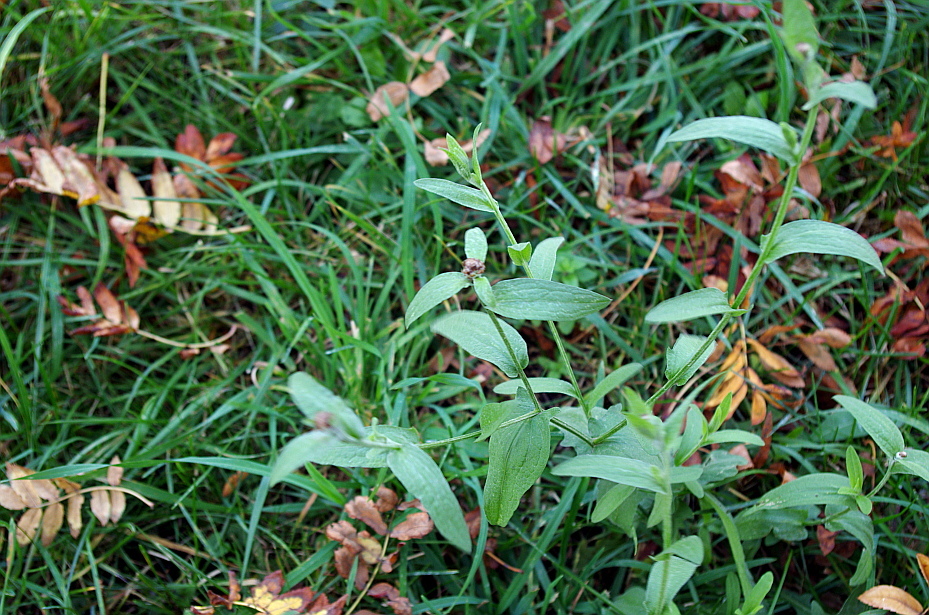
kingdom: Plantae
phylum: Tracheophyta
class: Magnoliopsida
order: Asterales
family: Asteraceae
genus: Centaurea
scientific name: Centaurea jacea
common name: Brown knapweed
